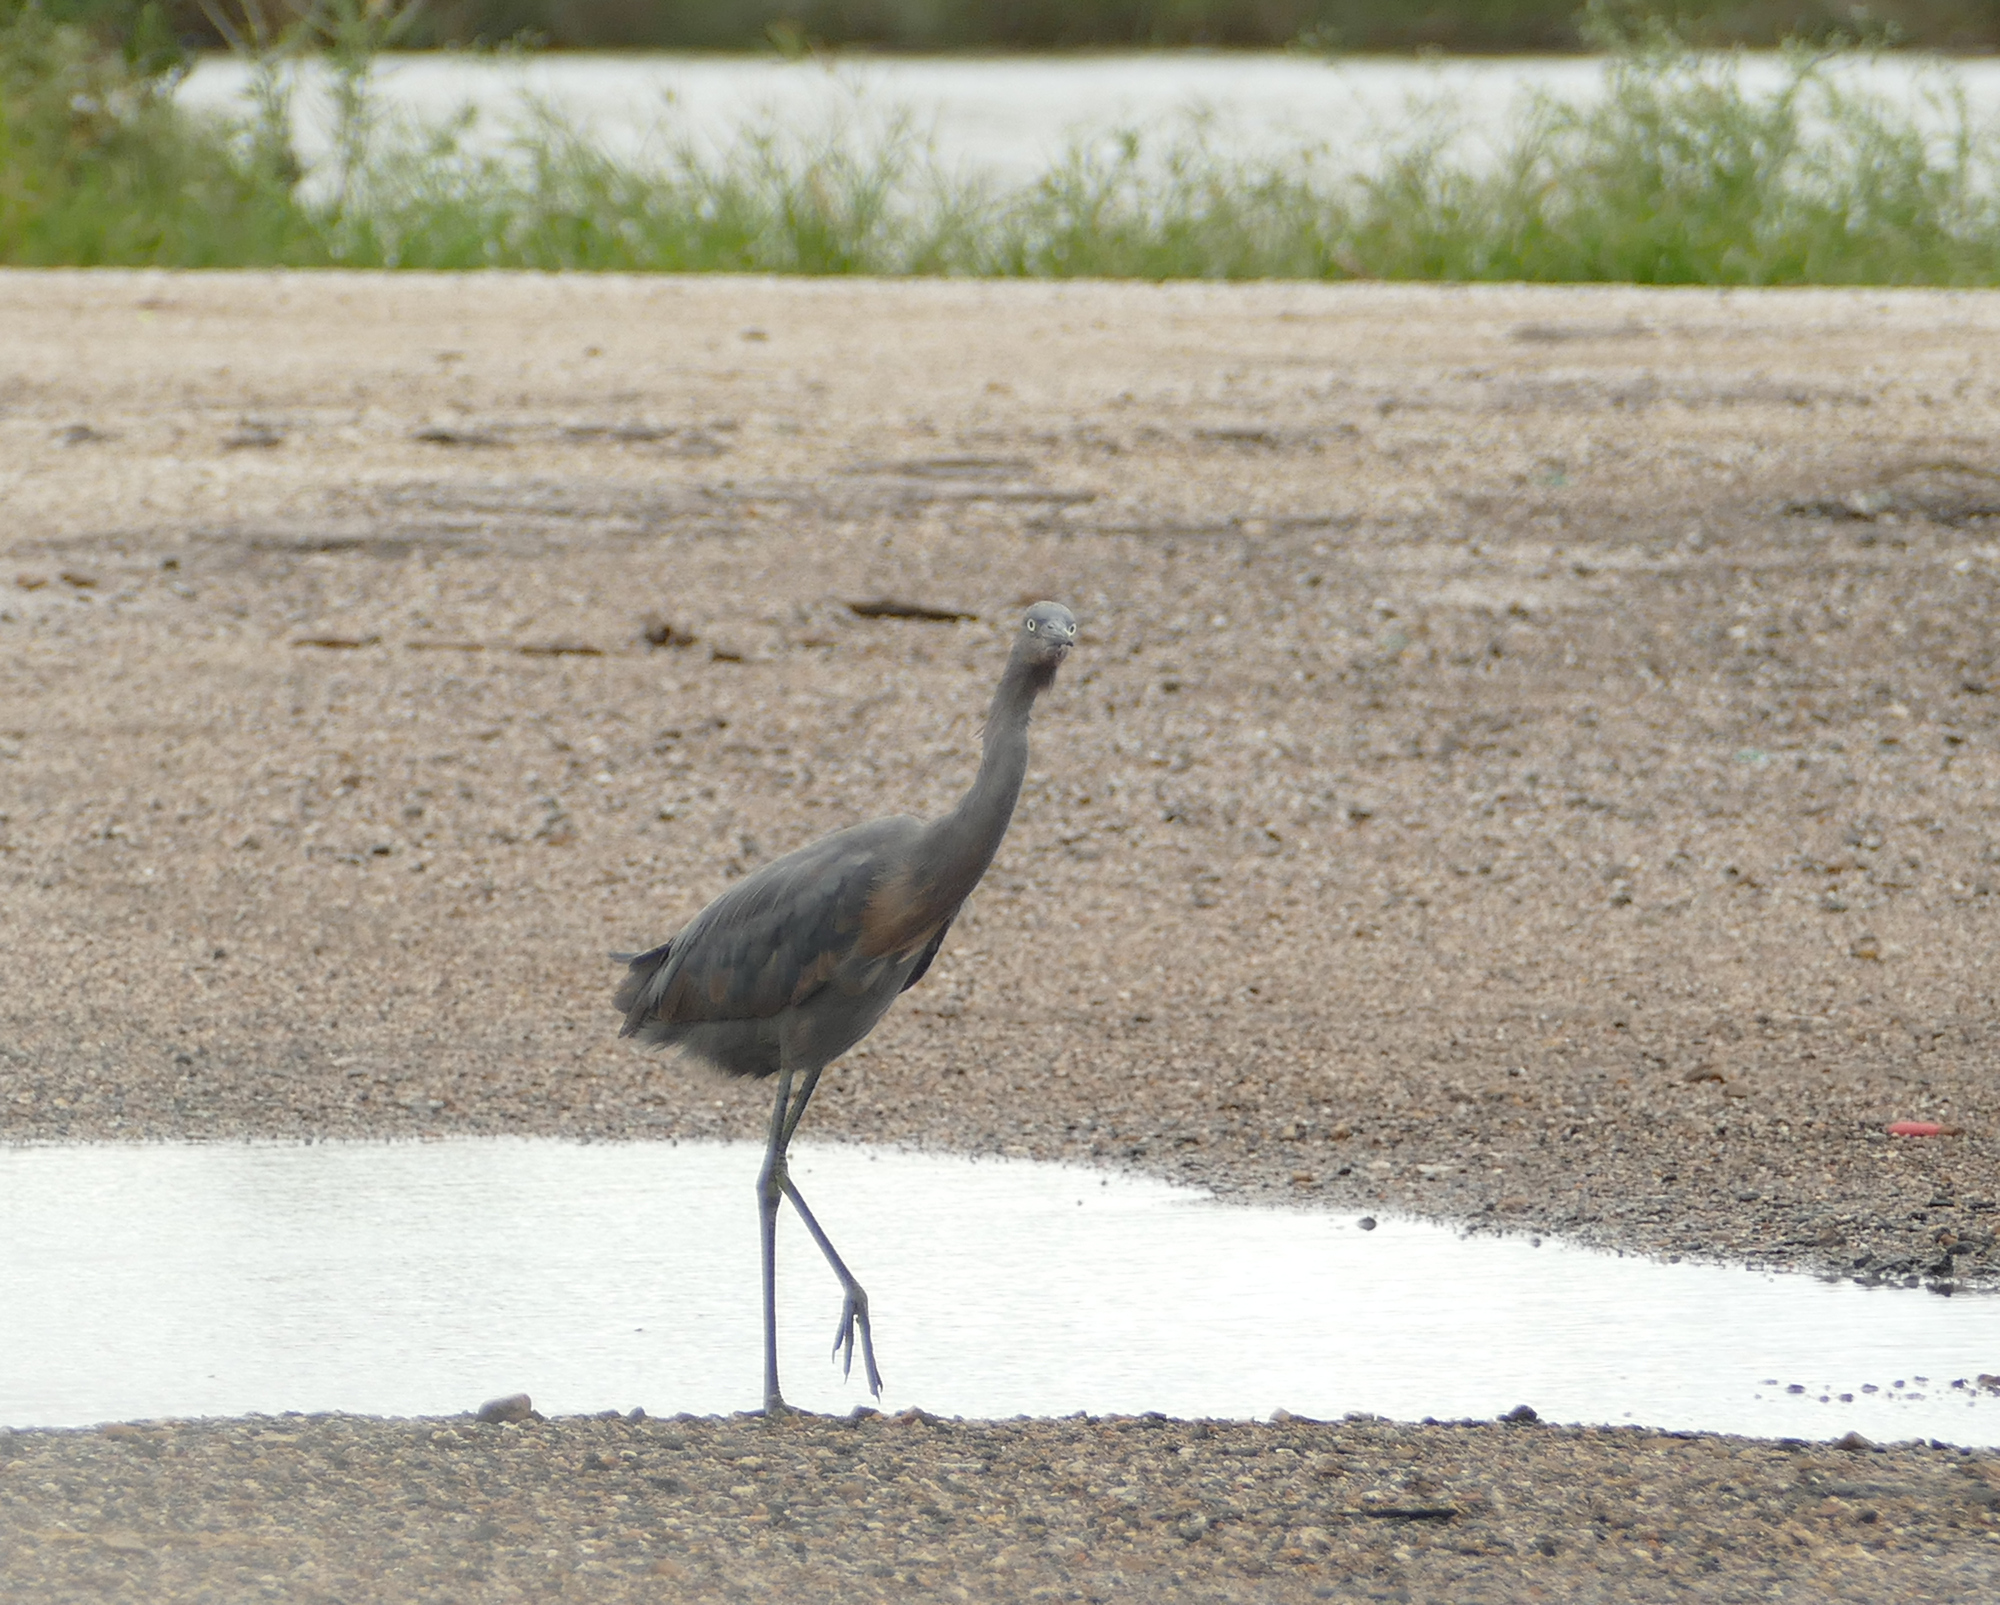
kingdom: Animalia
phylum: Chordata
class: Aves
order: Pelecaniformes
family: Ardeidae
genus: Egretta
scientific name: Egretta rufescens
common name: Reddish egret
